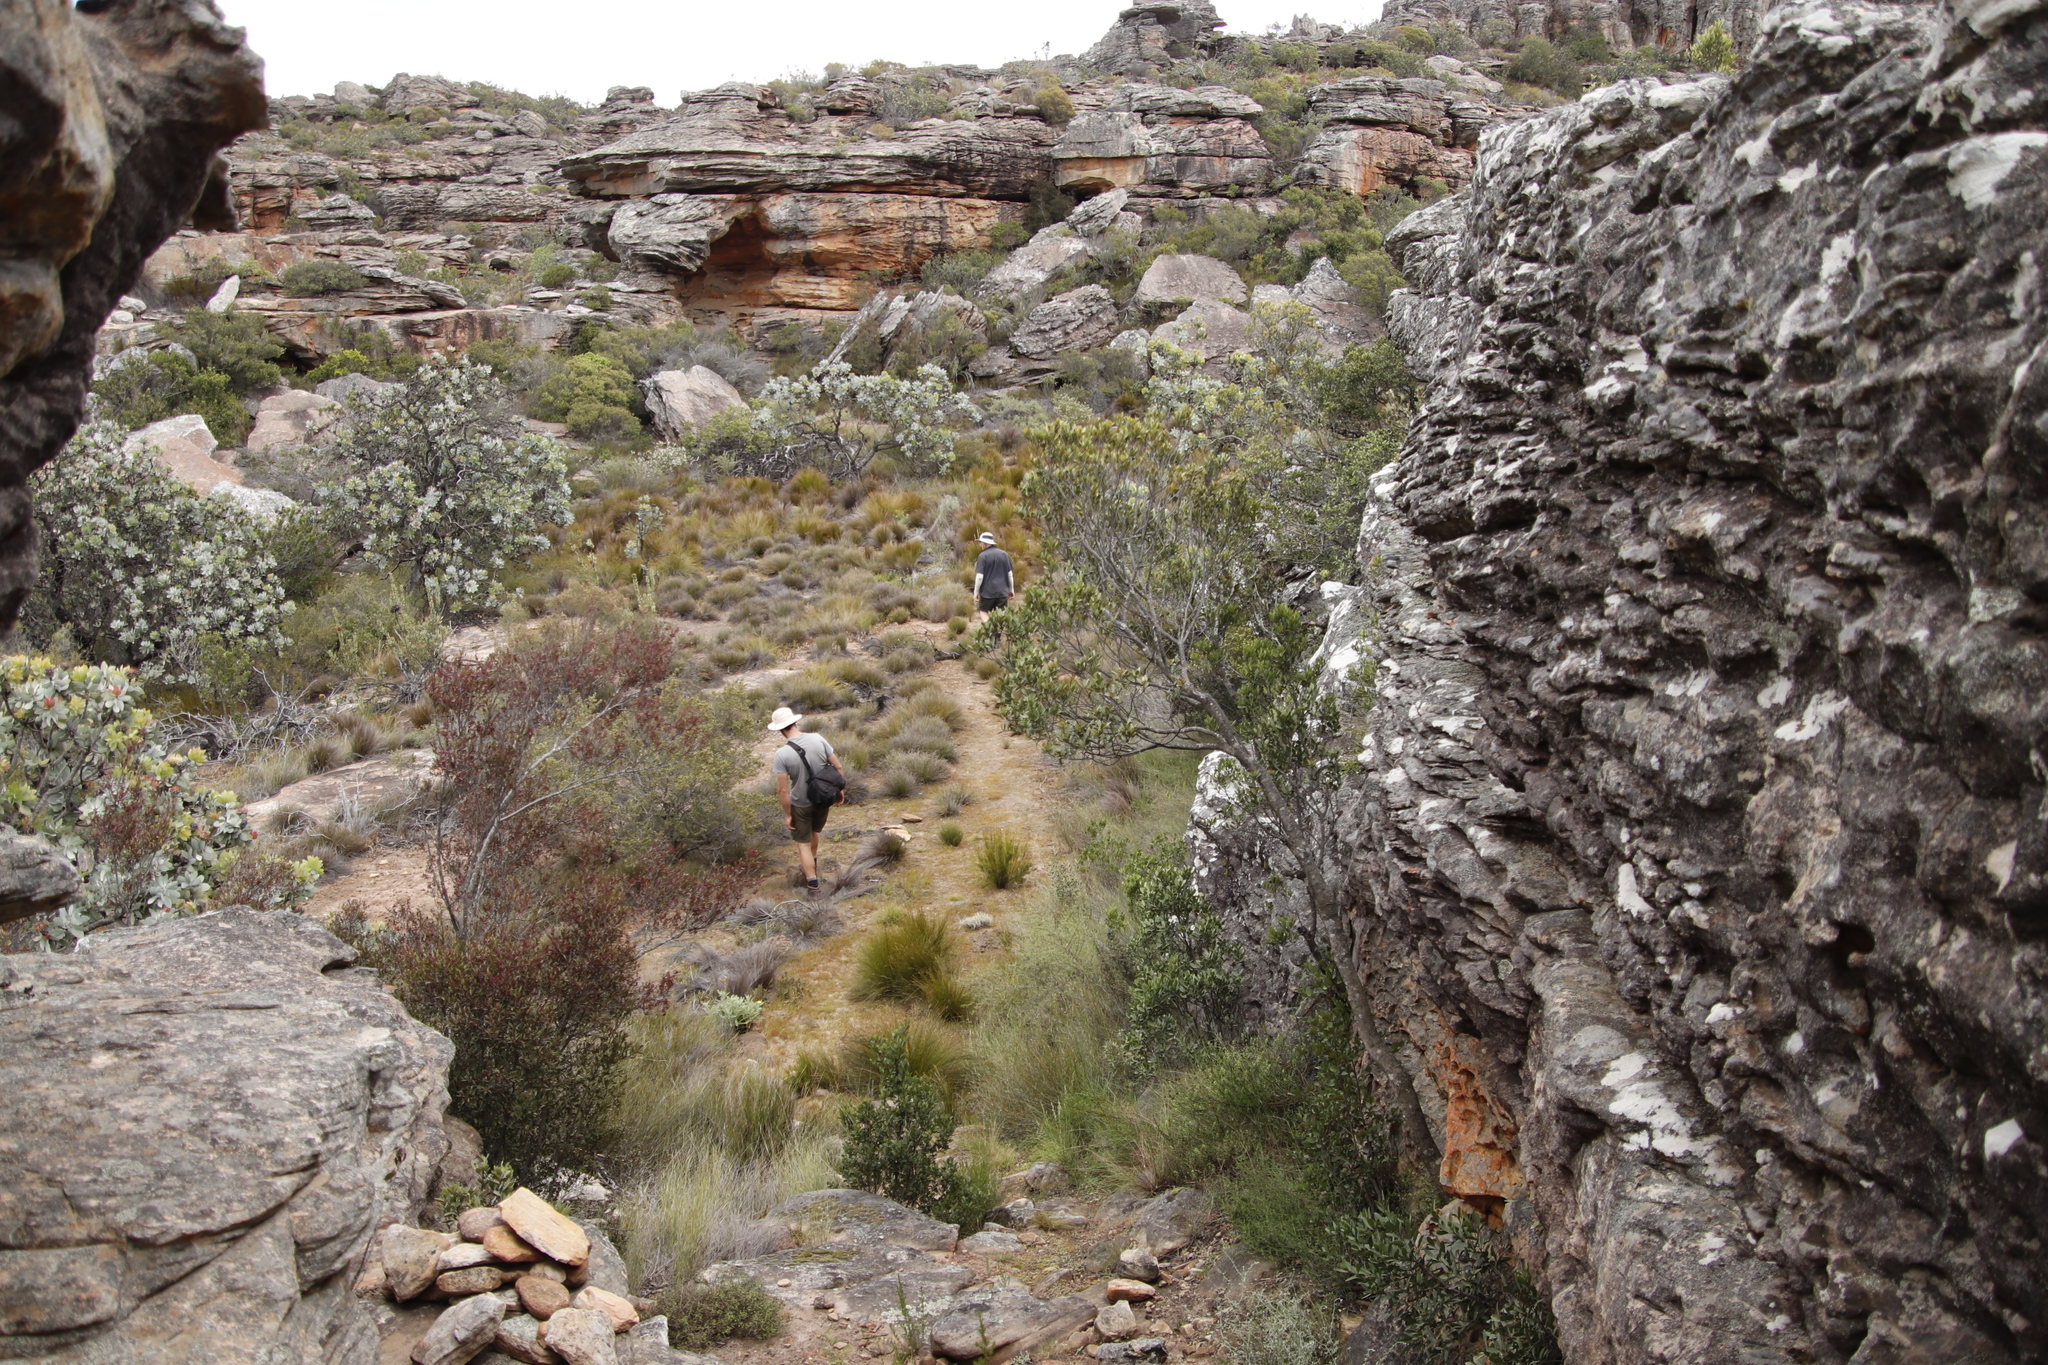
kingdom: Plantae
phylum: Tracheophyta
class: Magnoliopsida
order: Celastrales
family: Celastraceae
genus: Gymnosporia
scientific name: Gymnosporia acuminata
